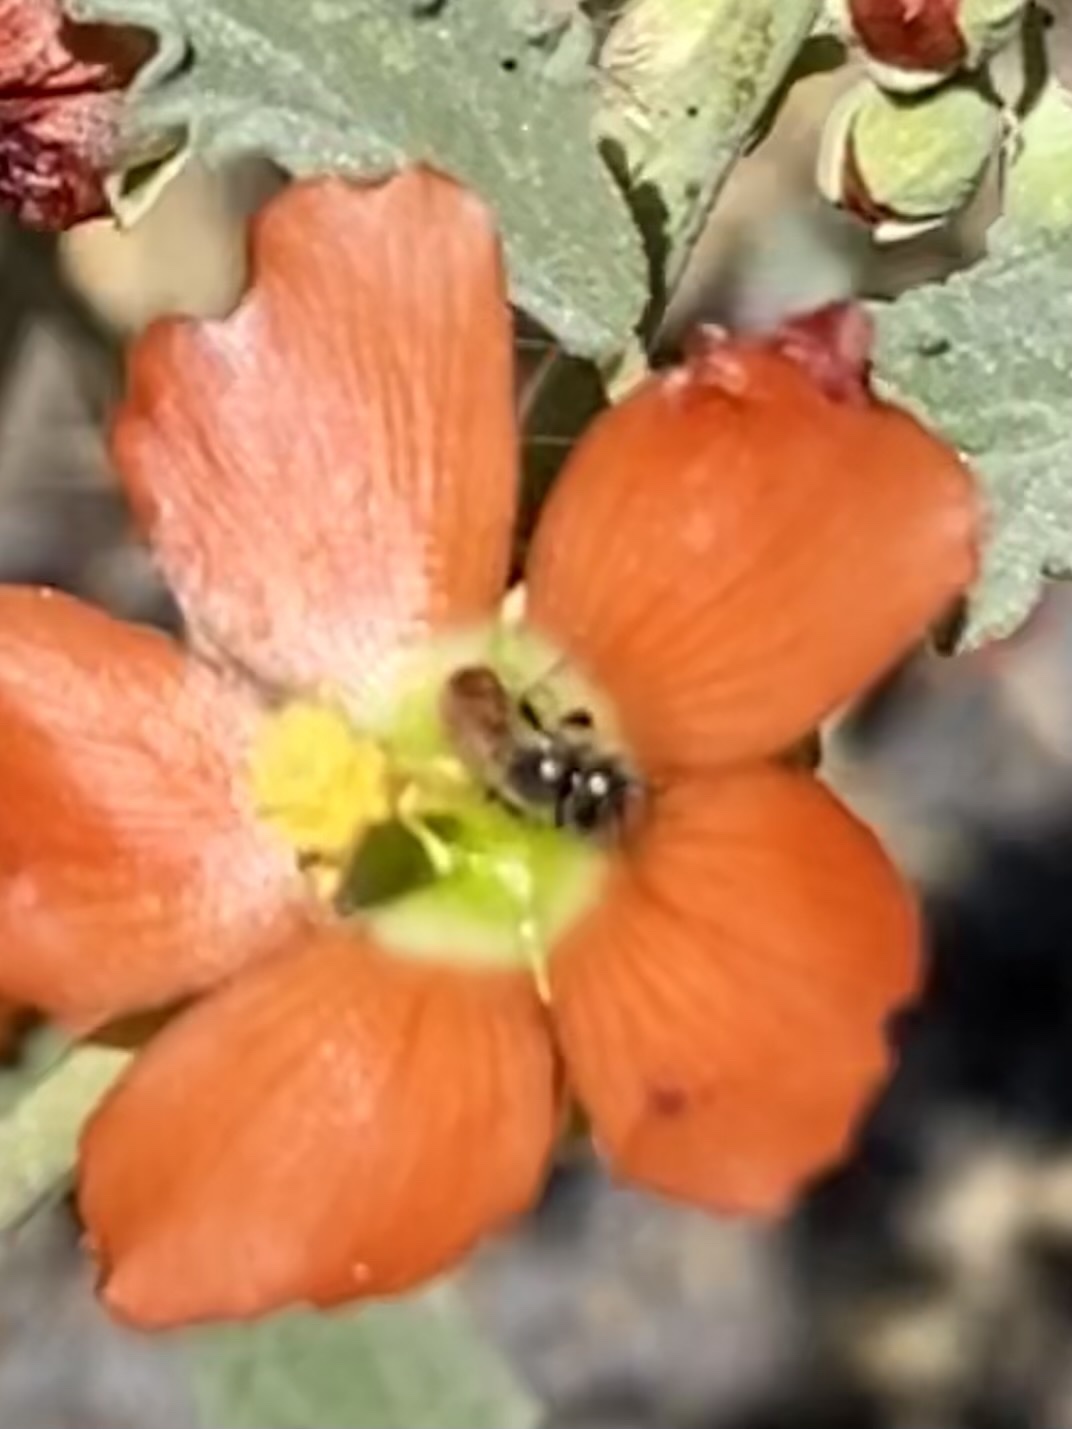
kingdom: Animalia
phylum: Arthropoda
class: Insecta
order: Hymenoptera
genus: Macroteropsis
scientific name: Macroteropsis
